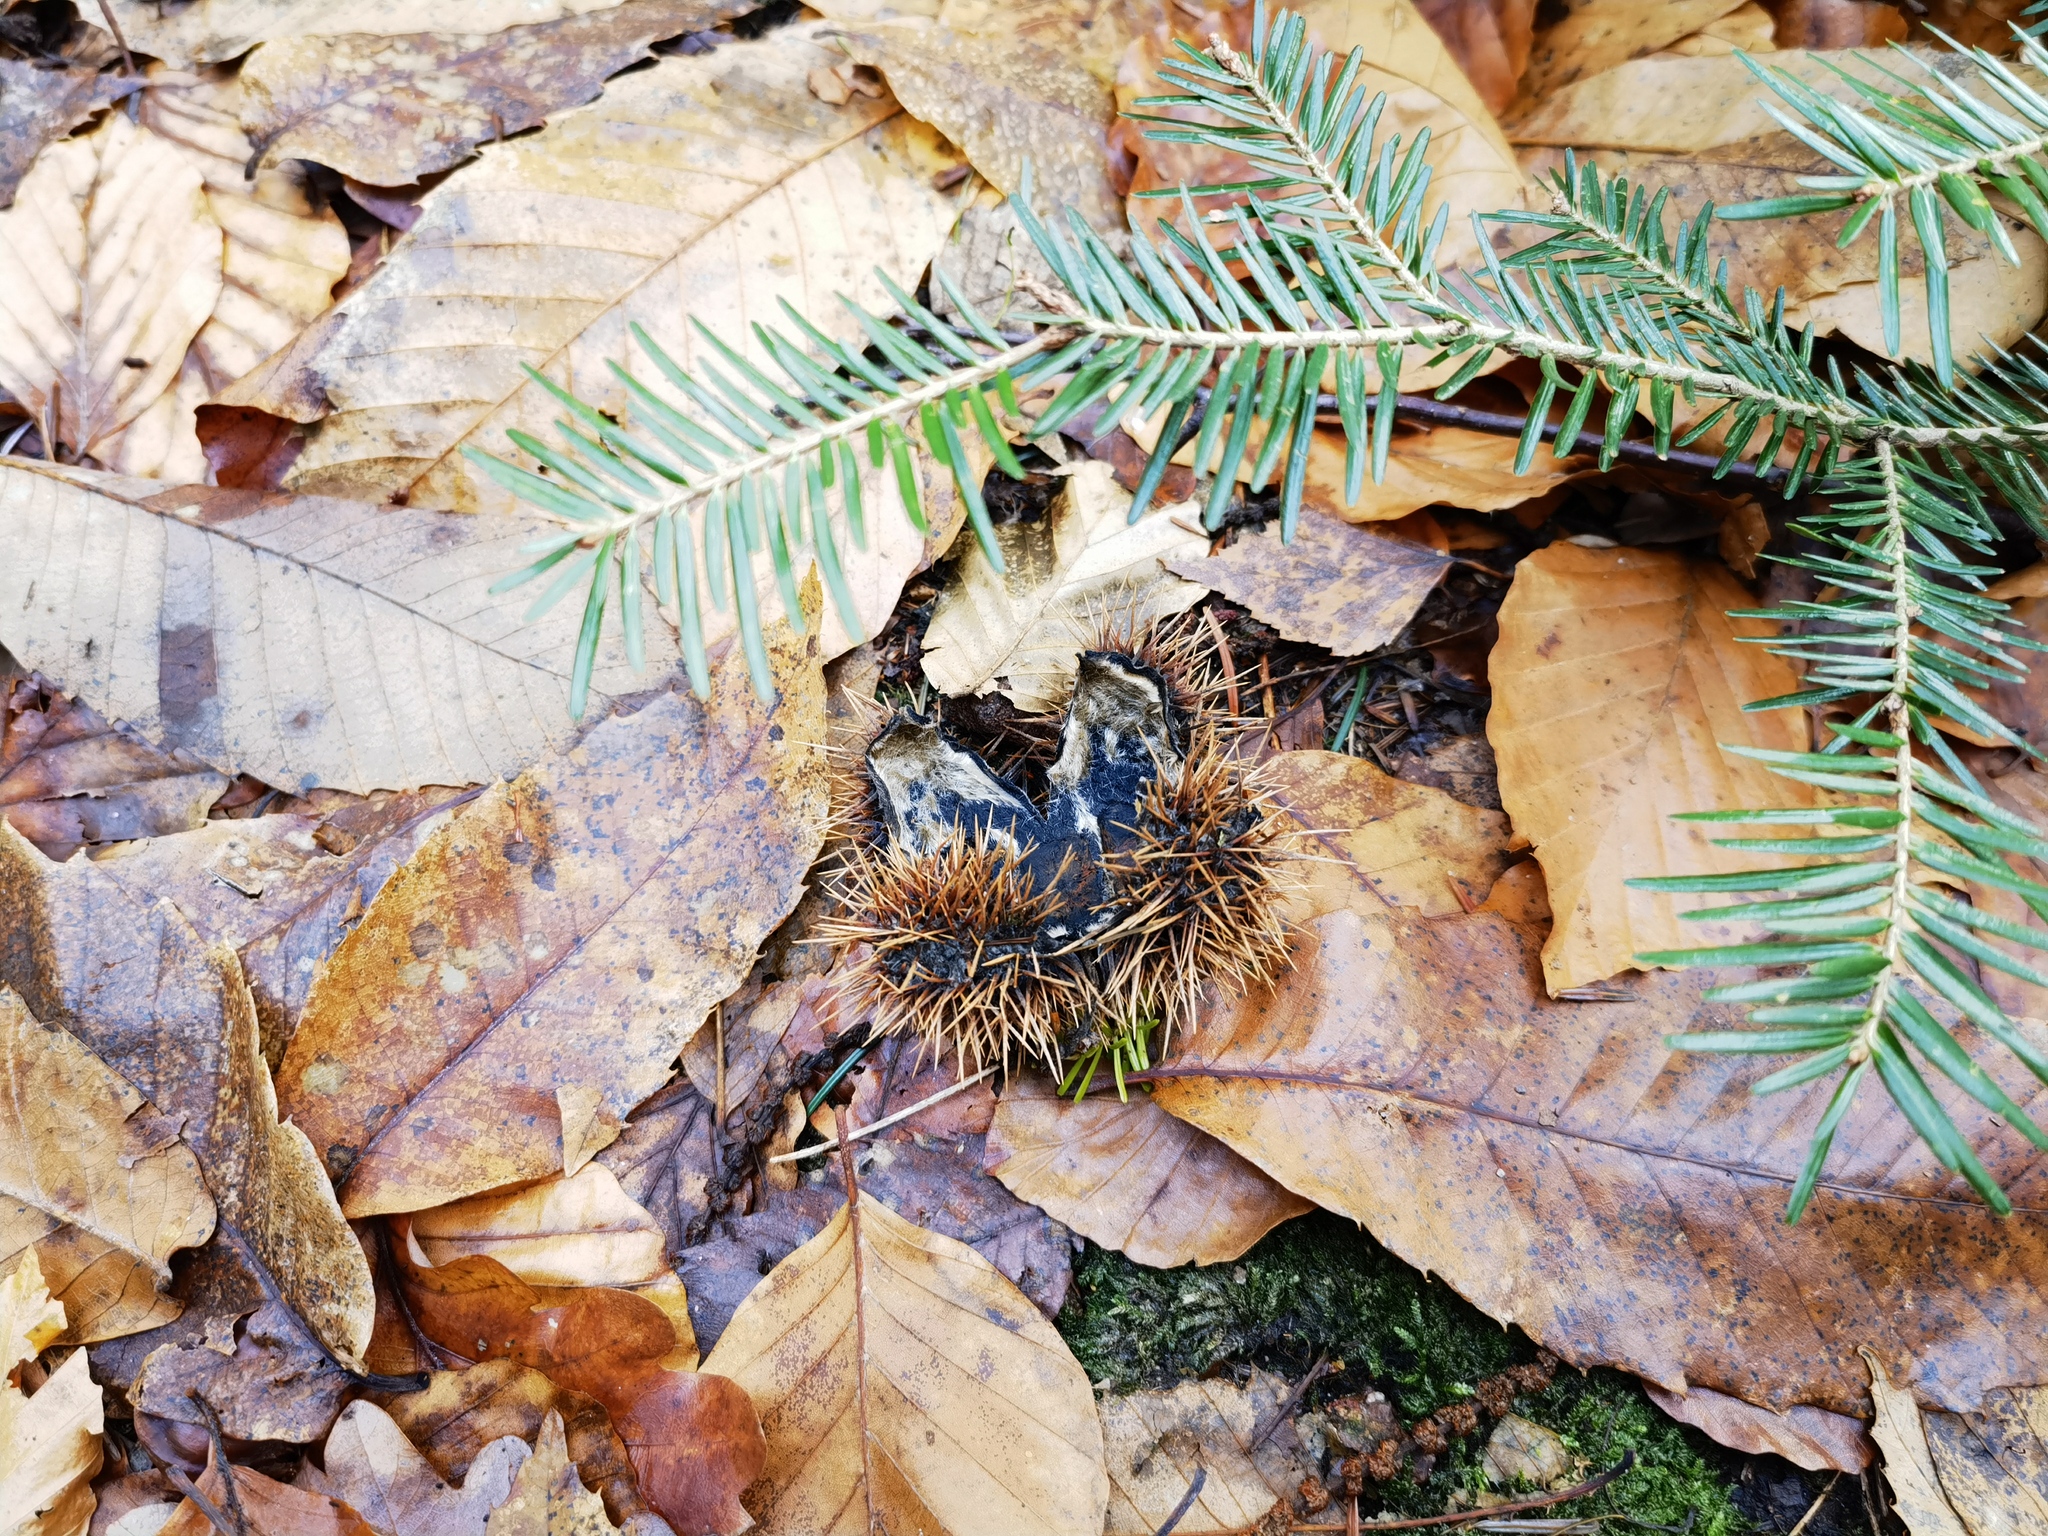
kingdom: Plantae
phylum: Tracheophyta
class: Magnoliopsida
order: Fagales
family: Fagaceae
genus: Castanea
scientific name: Castanea sativa
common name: Sweet chestnut
